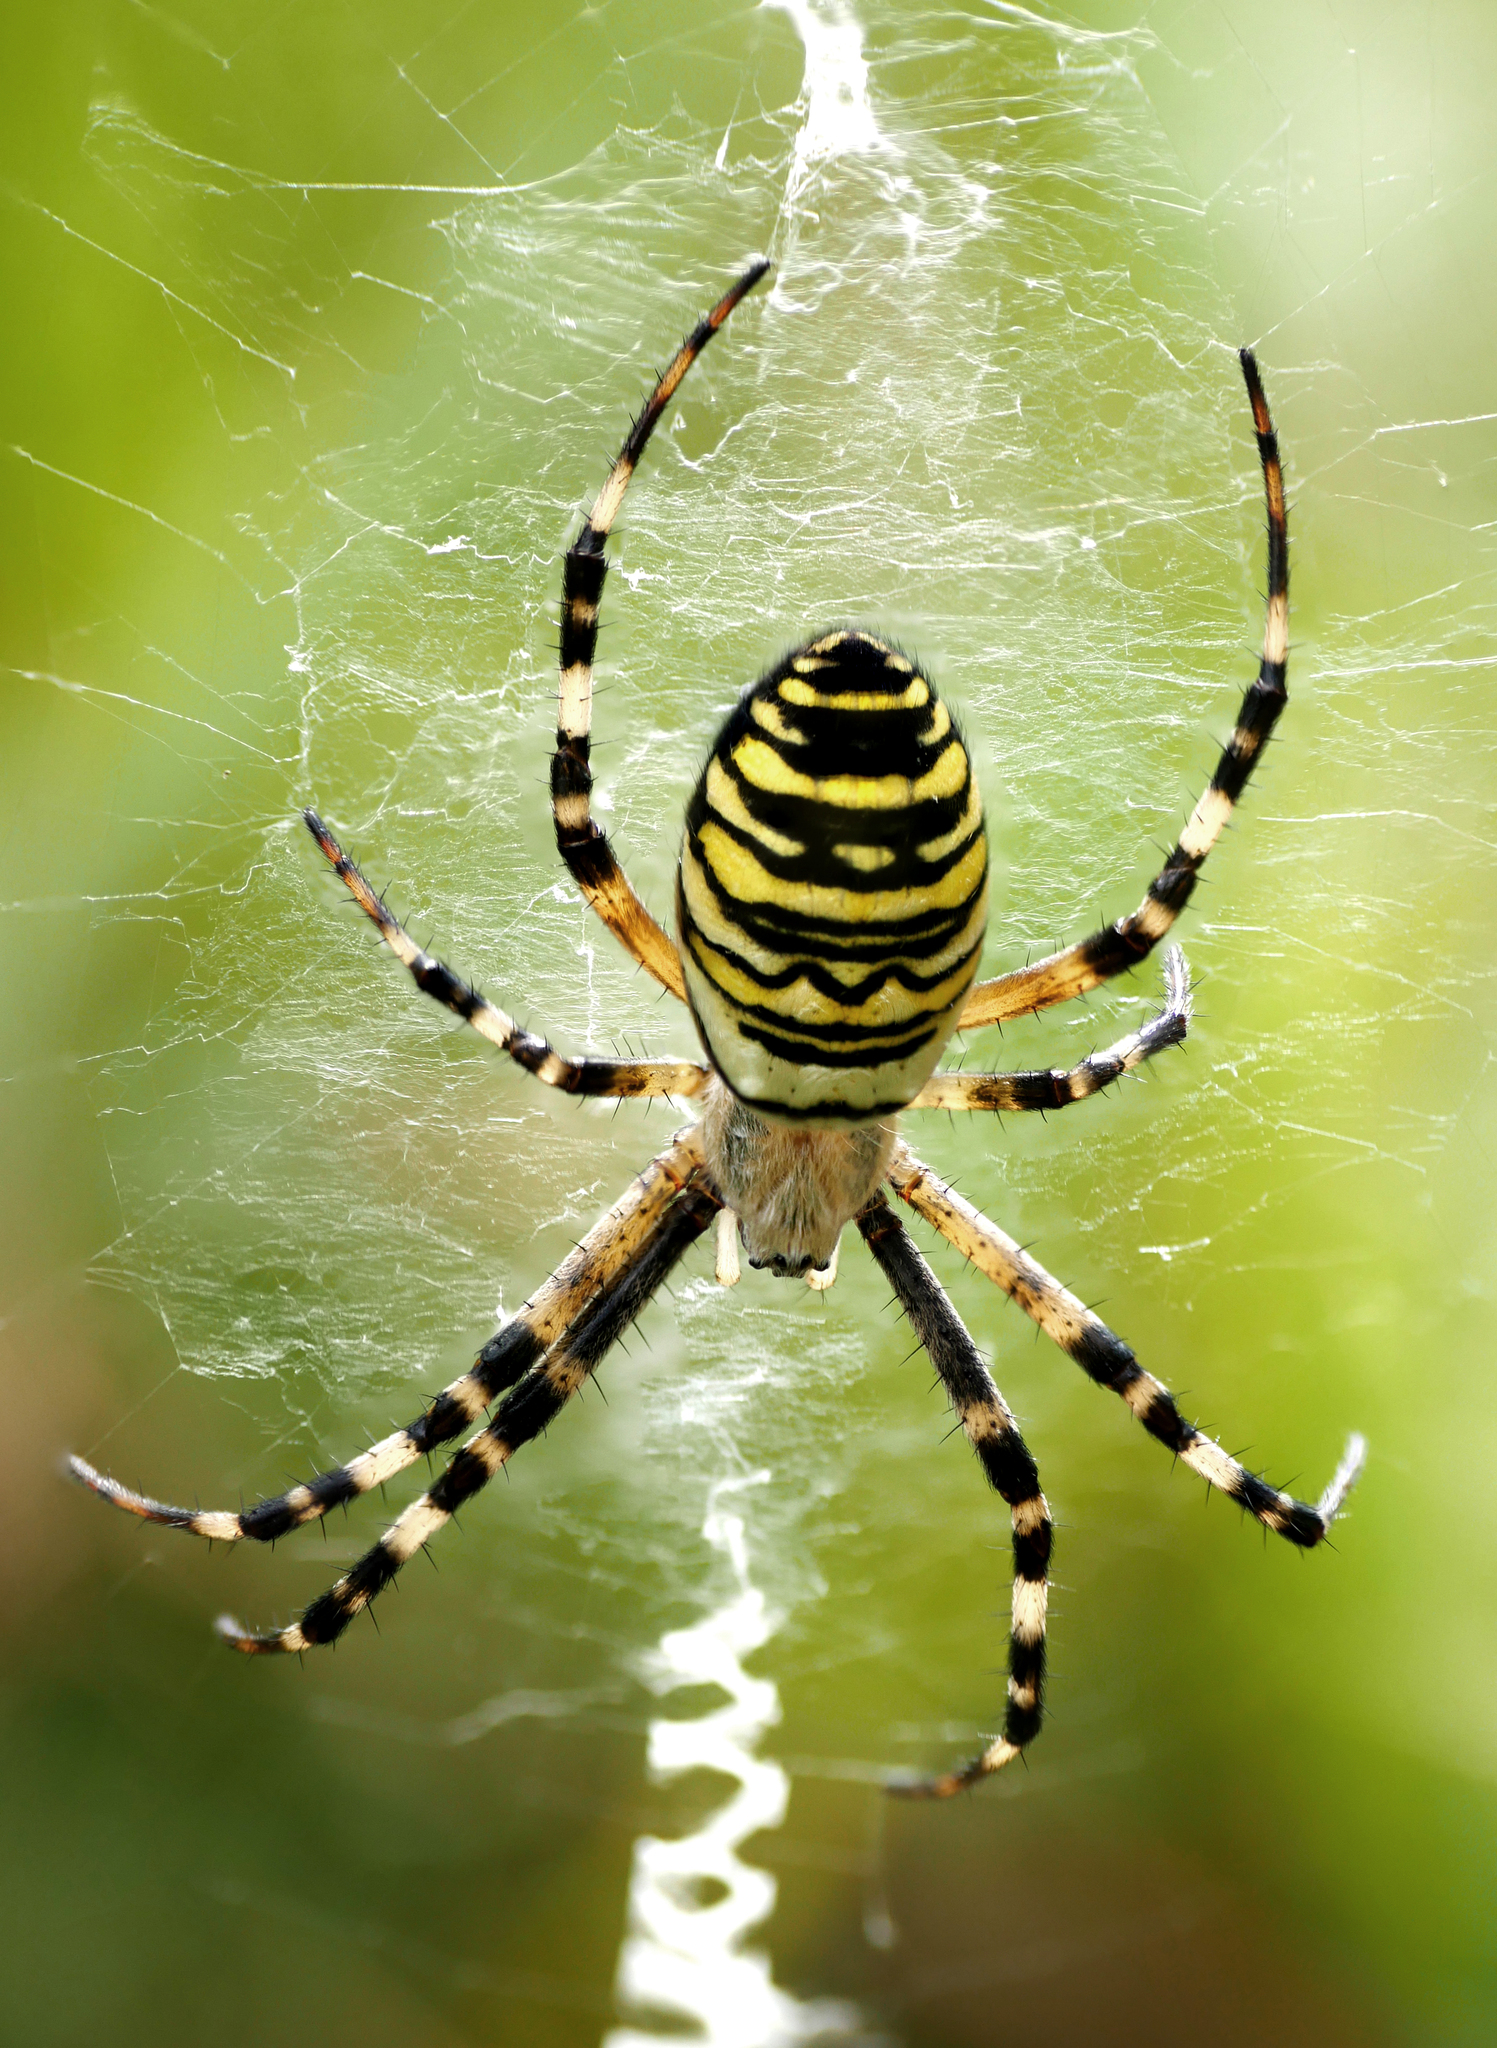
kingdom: Animalia
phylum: Arthropoda
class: Arachnida
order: Araneae
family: Araneidae
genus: Argiope
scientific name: Argiope bruennichi
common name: Wasp spider
